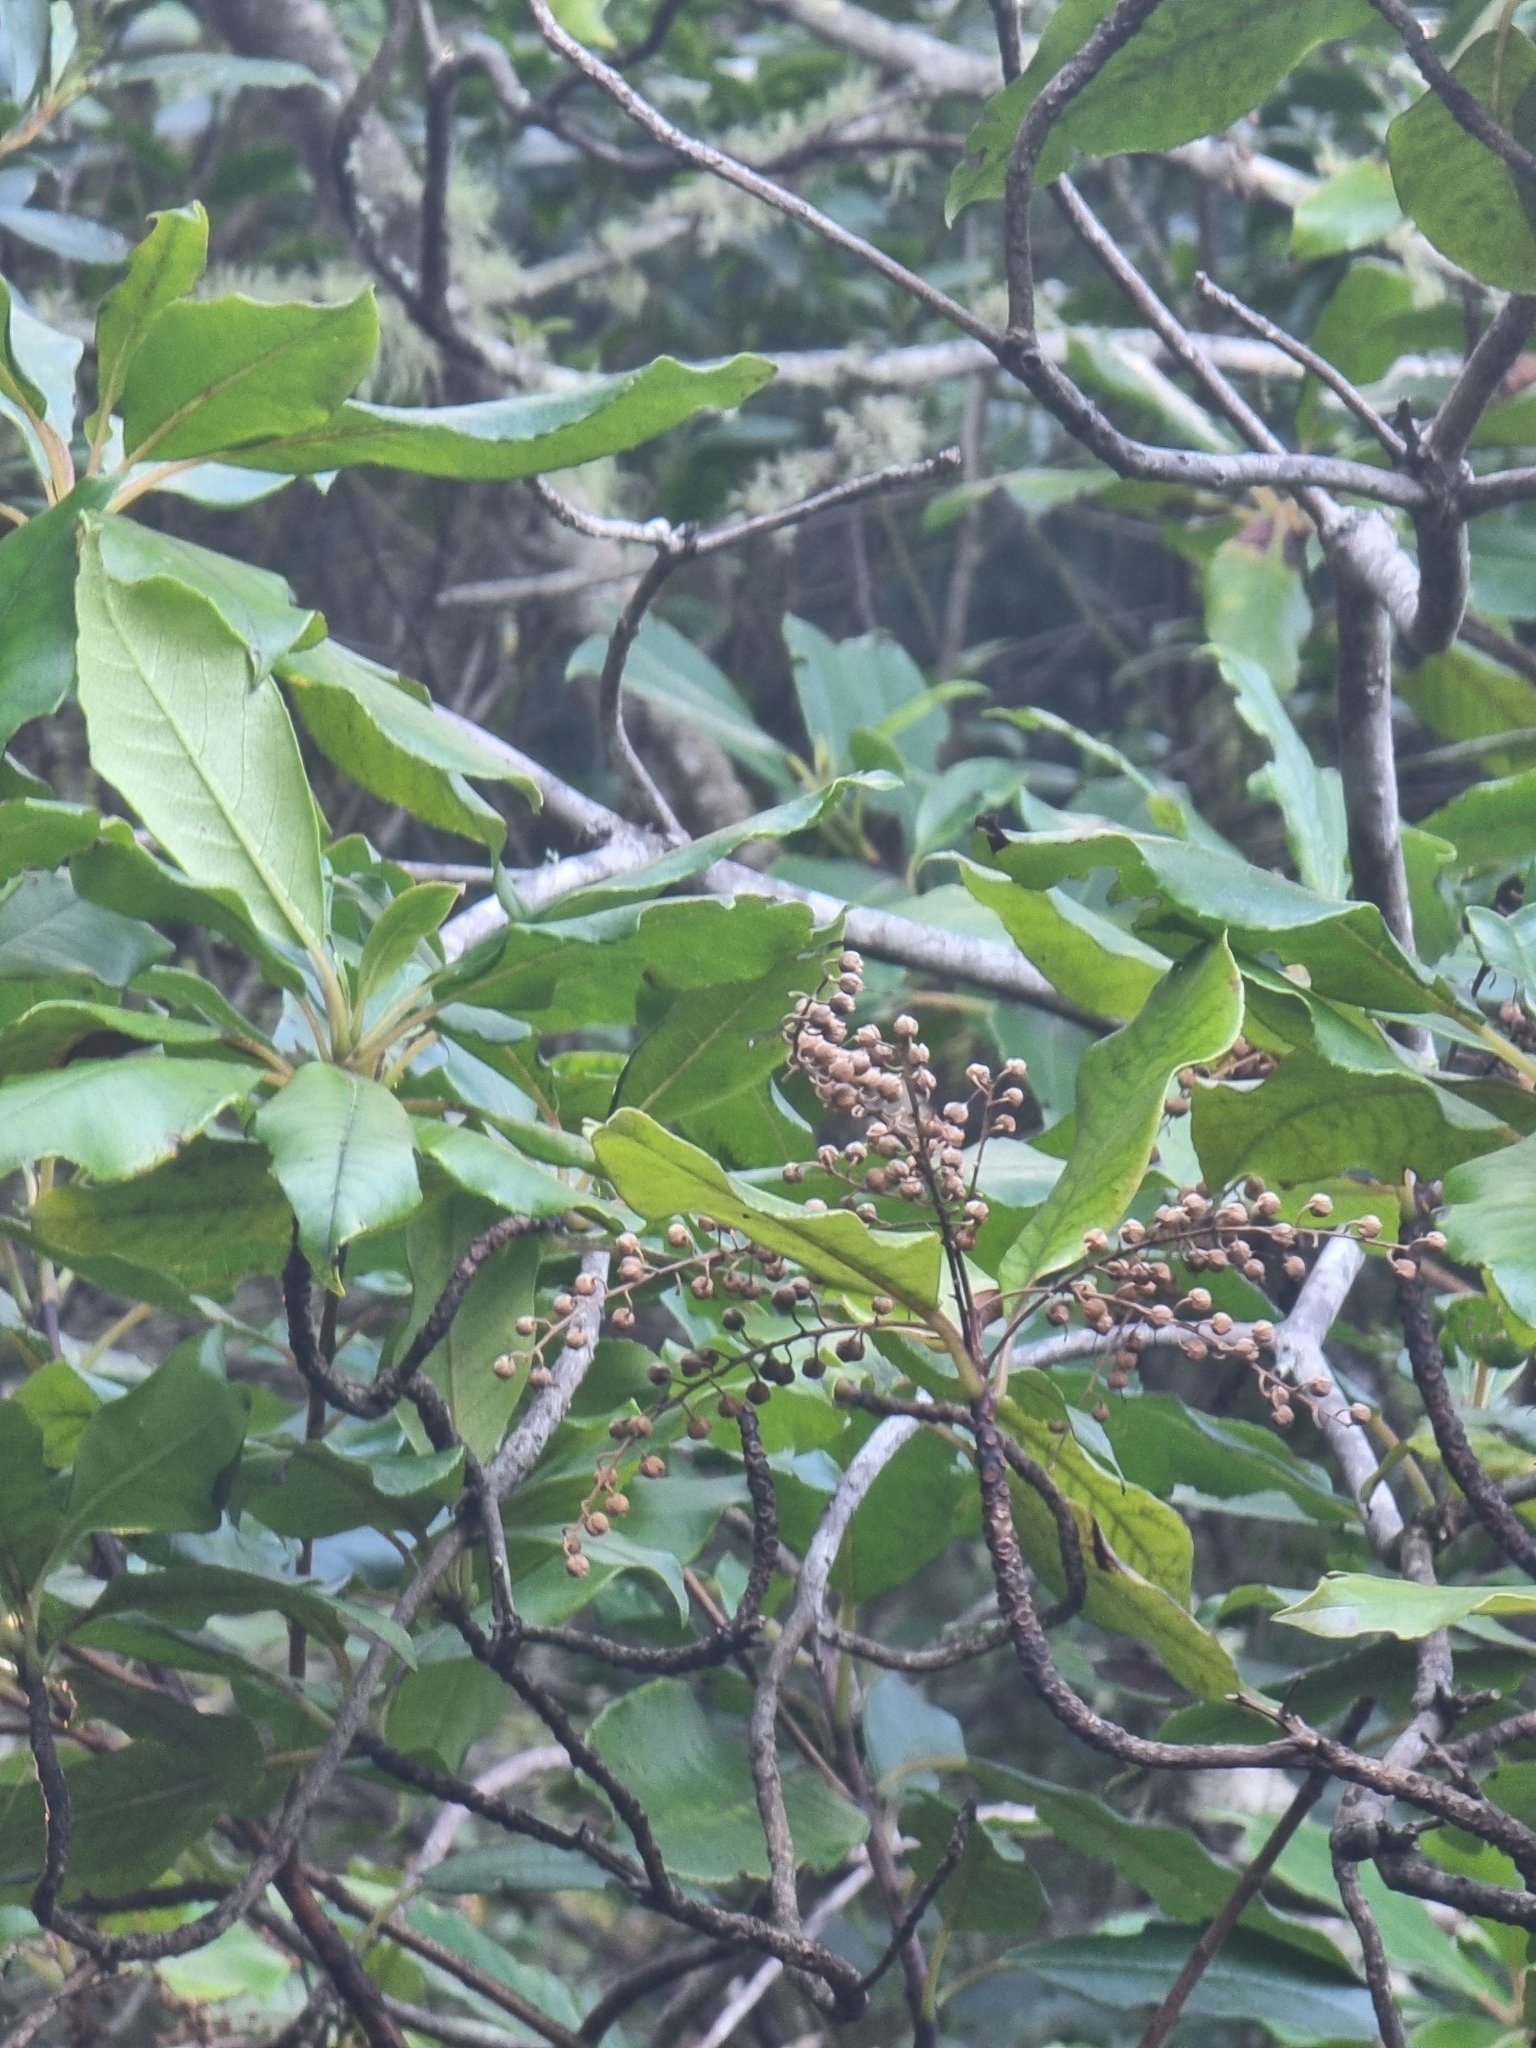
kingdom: Plantae
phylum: Tracheophyta
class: Magnoliopsida
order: Ericales
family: Clethraceae
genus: Clethra
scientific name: Clethra arborea
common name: Lily-of-the-valley-tree
